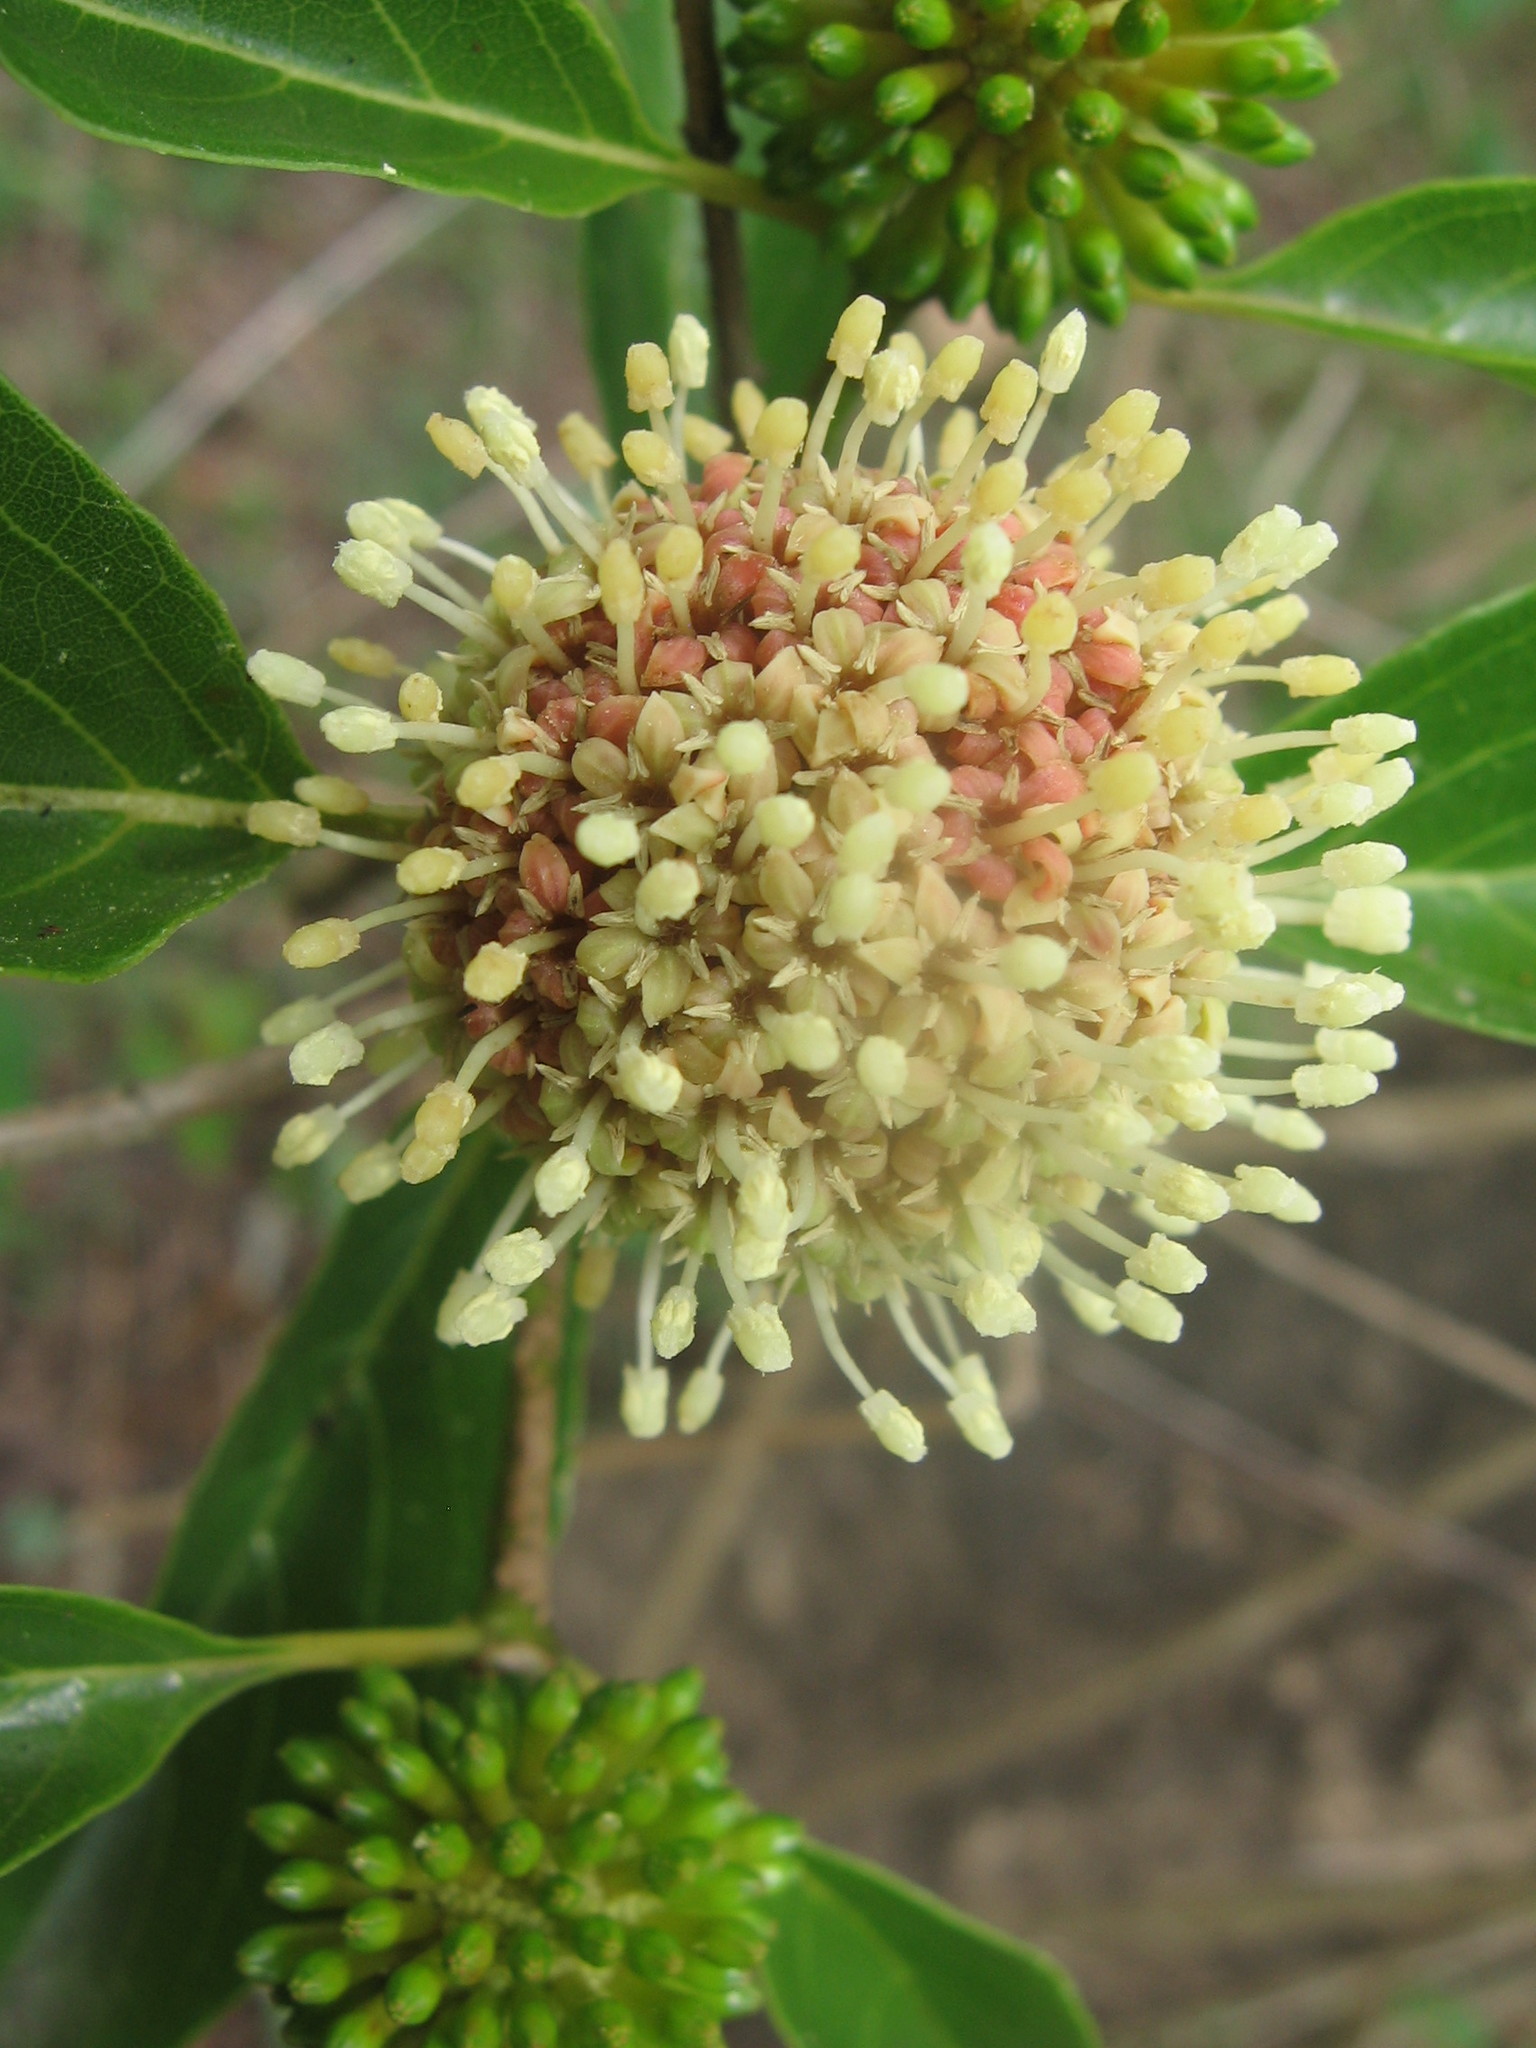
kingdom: Plantae
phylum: Tracheophyta
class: Magnoliopsida
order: Gentianales
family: Rubiaceae
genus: Mitragyna
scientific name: Mitragyna parvifolia
